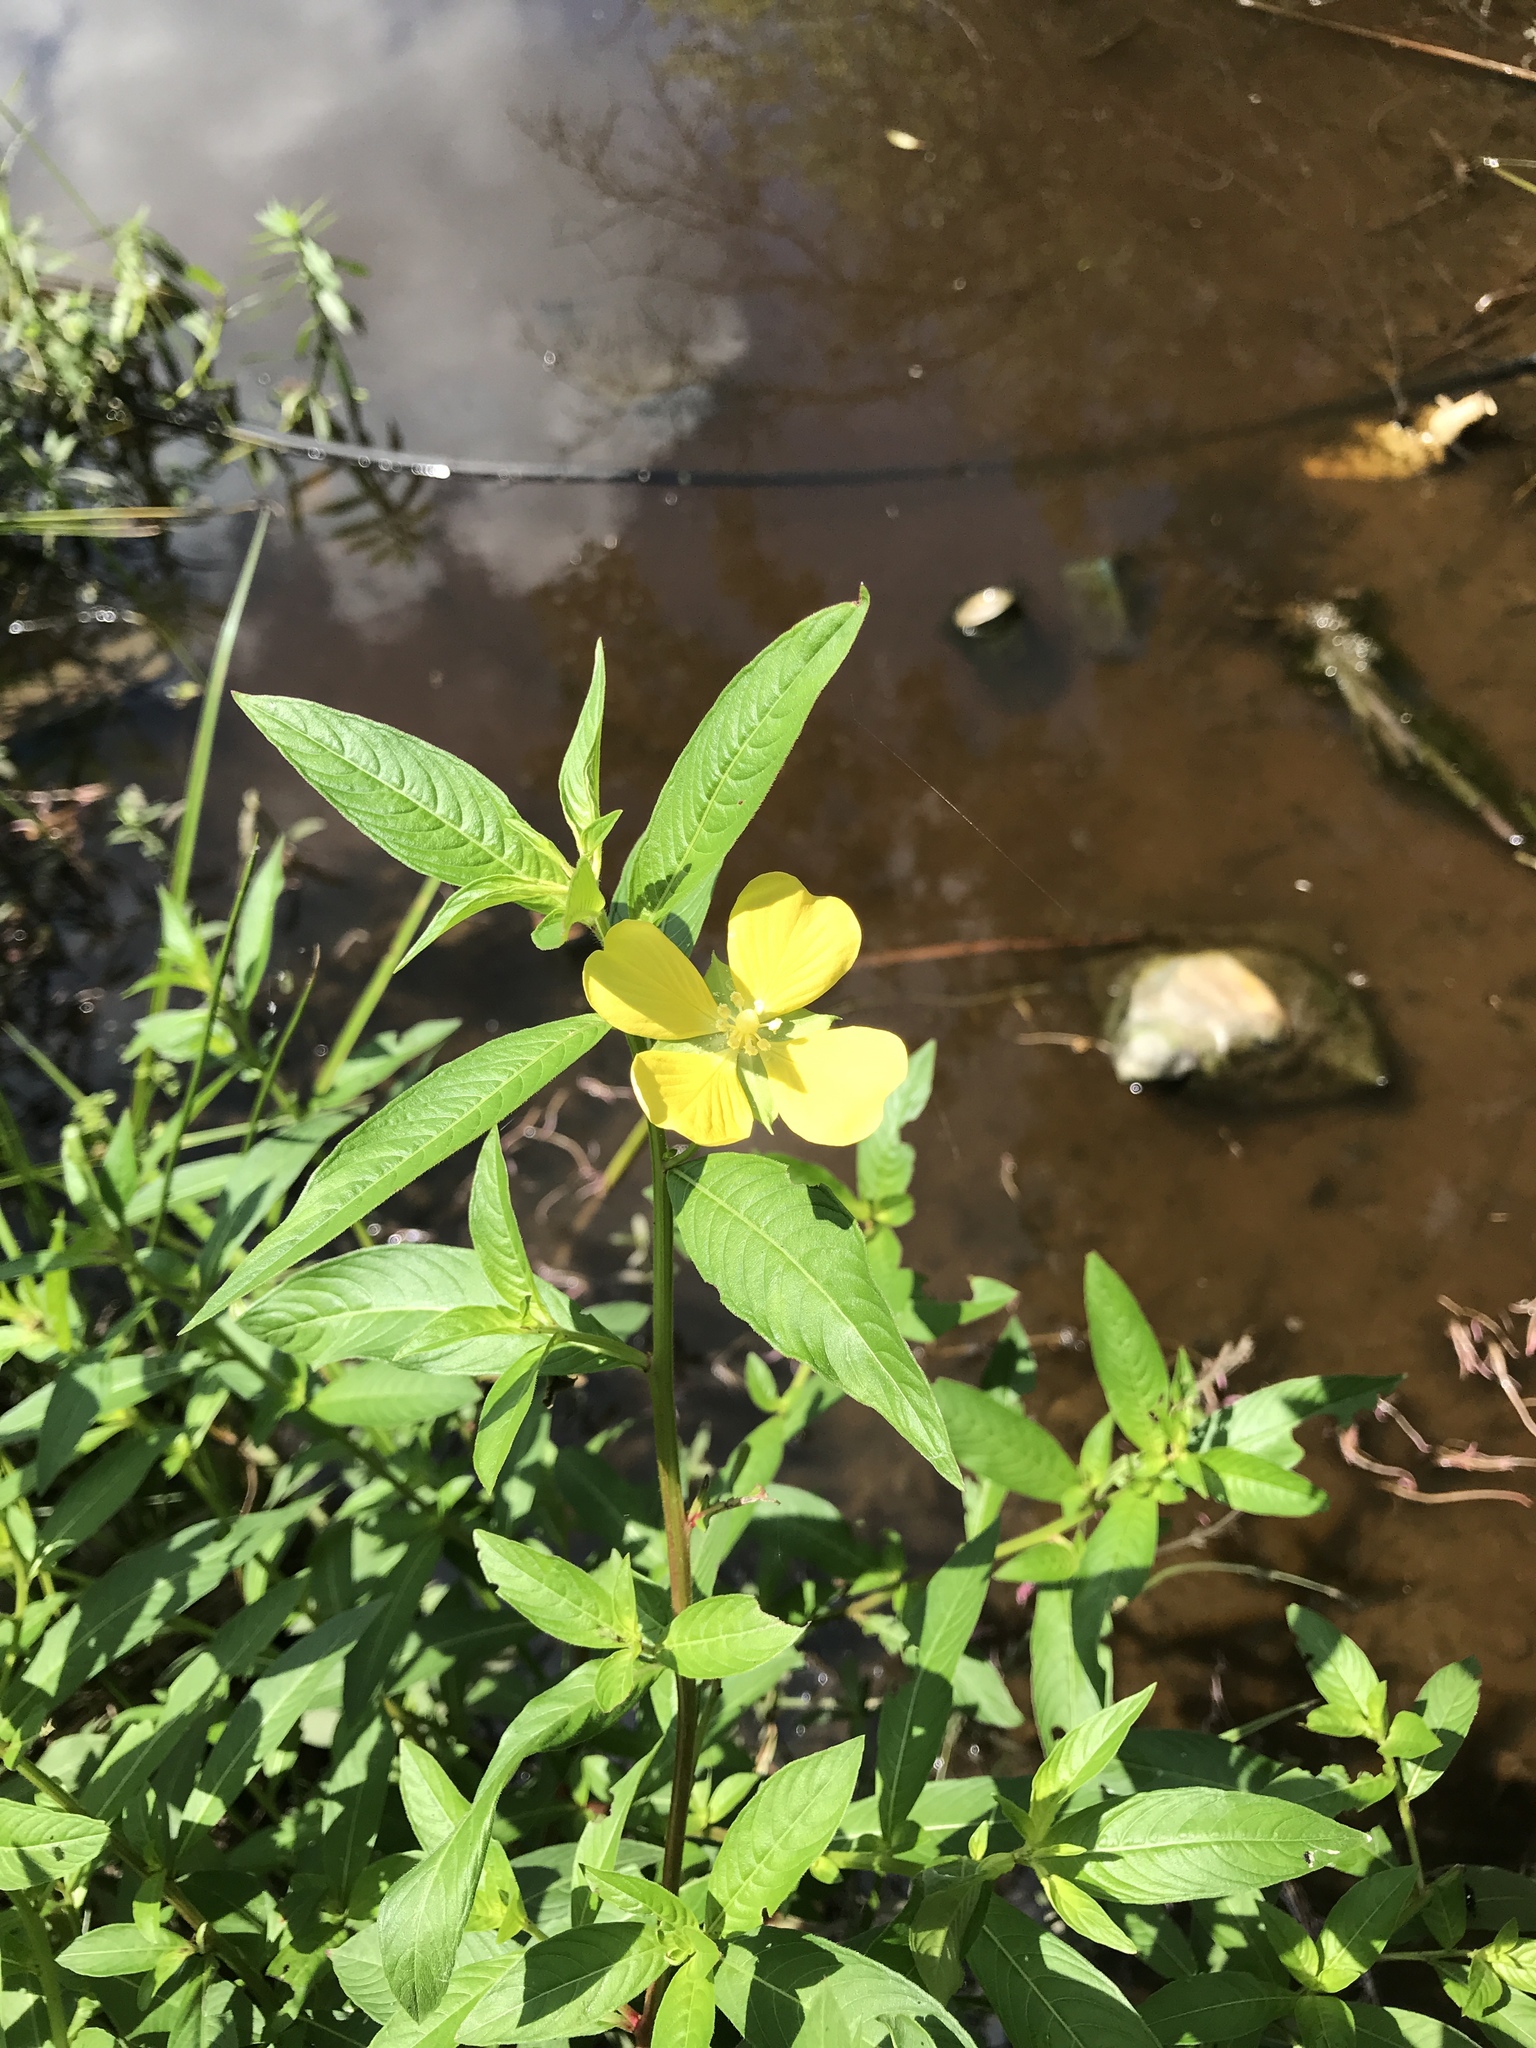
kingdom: Plantae
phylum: Tracheophyta
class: Magnoliopsida
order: Myrtales
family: Onagraceae
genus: Ludwigia
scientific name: Ludwigia octovalvis
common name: Water-primrose
